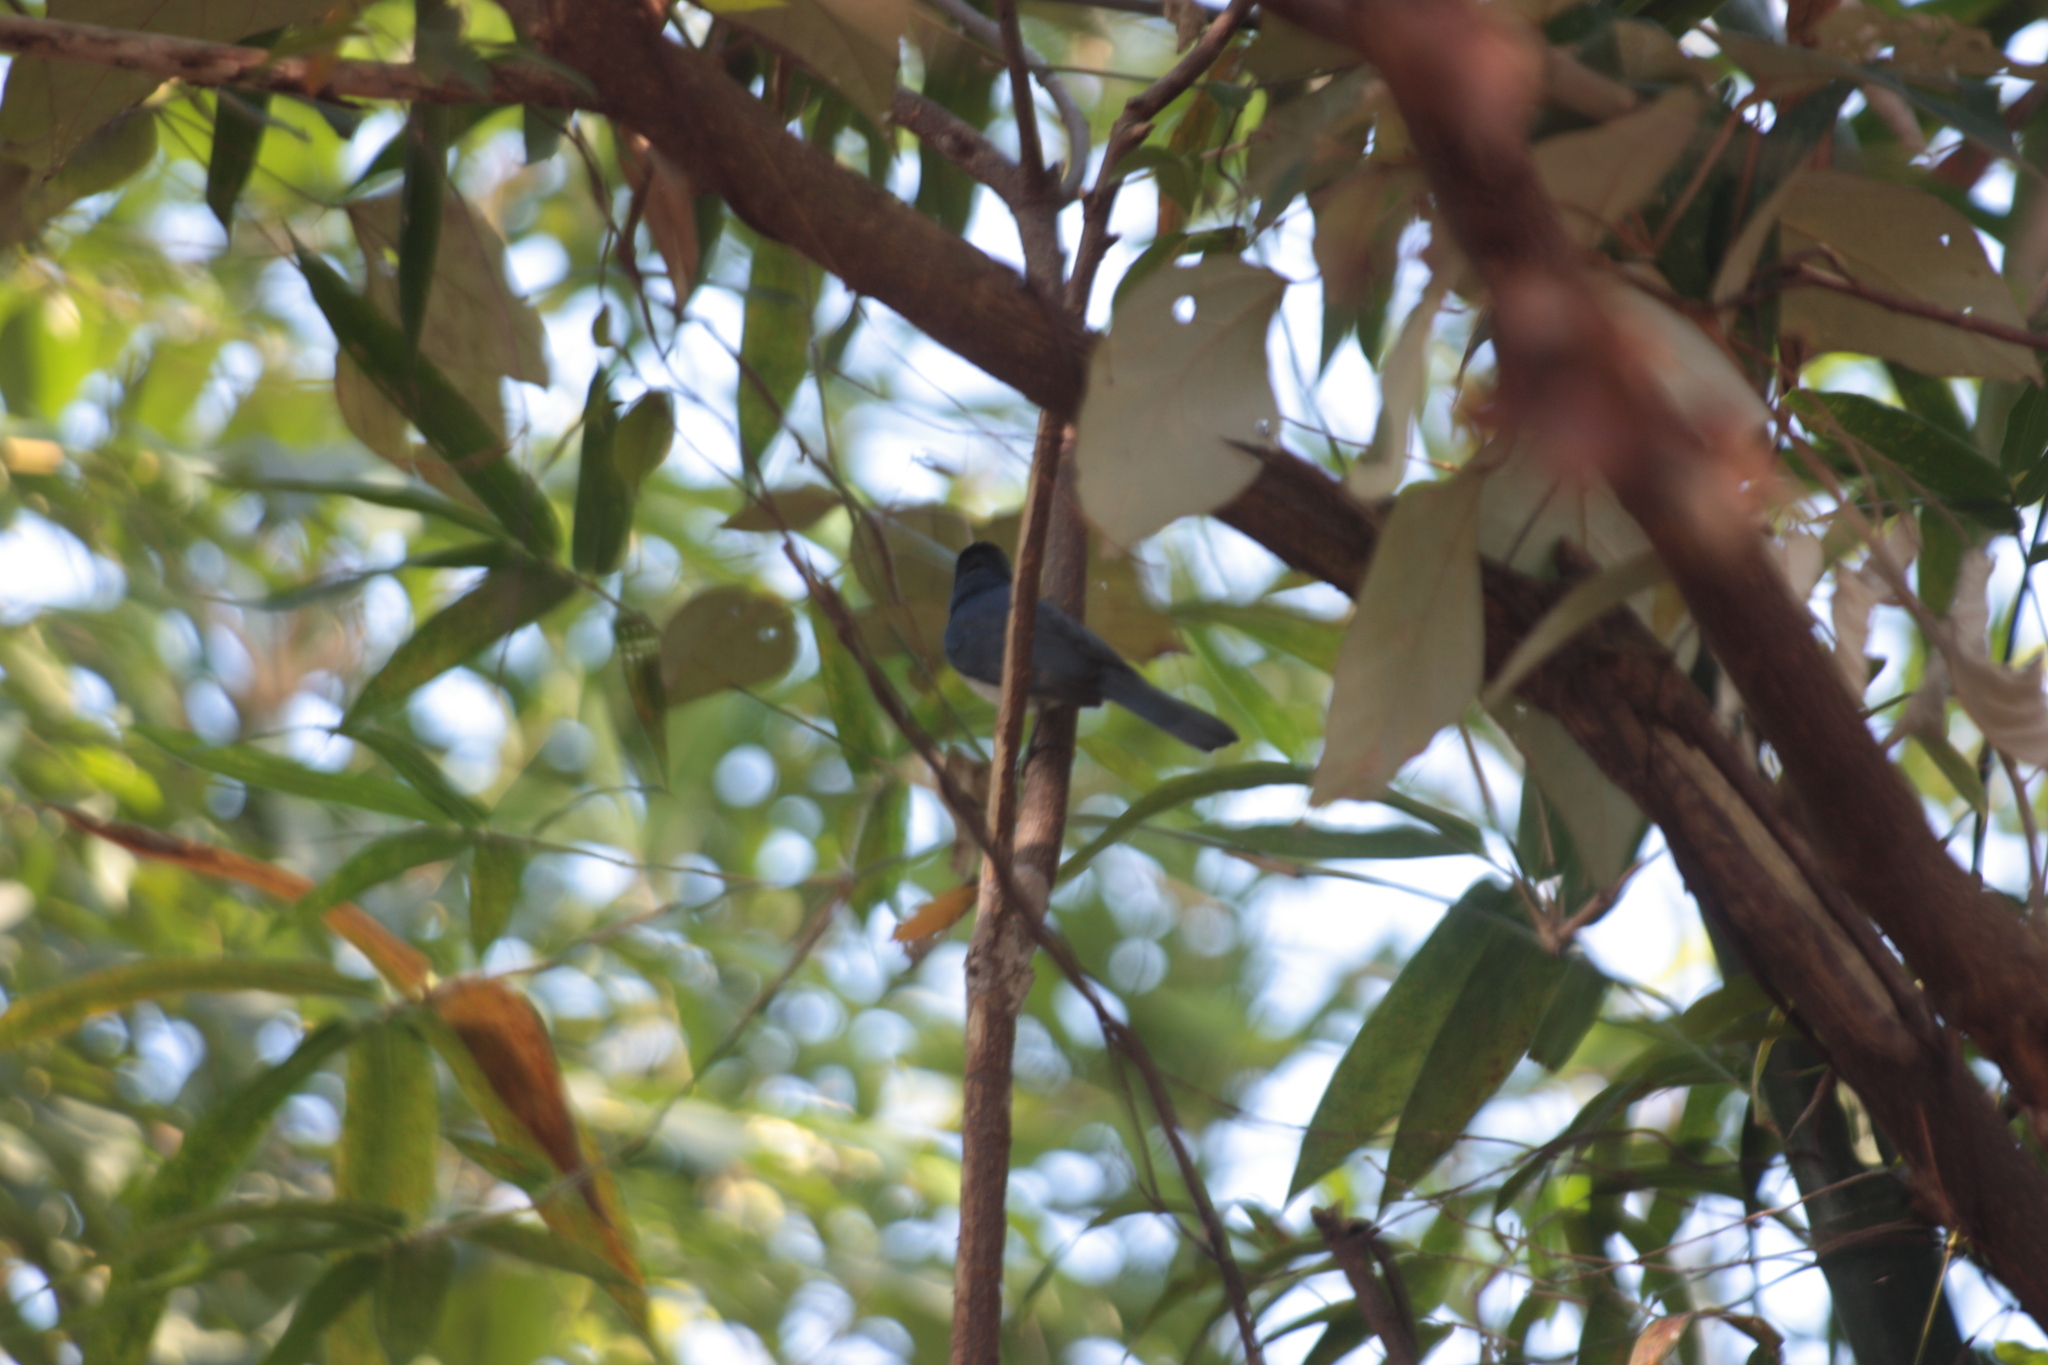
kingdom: Animalia
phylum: Chordata
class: Aves
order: Passeriformes
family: Monarchidae
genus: Hypothymis
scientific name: Hypothymis azurea
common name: Black-naped monarch
